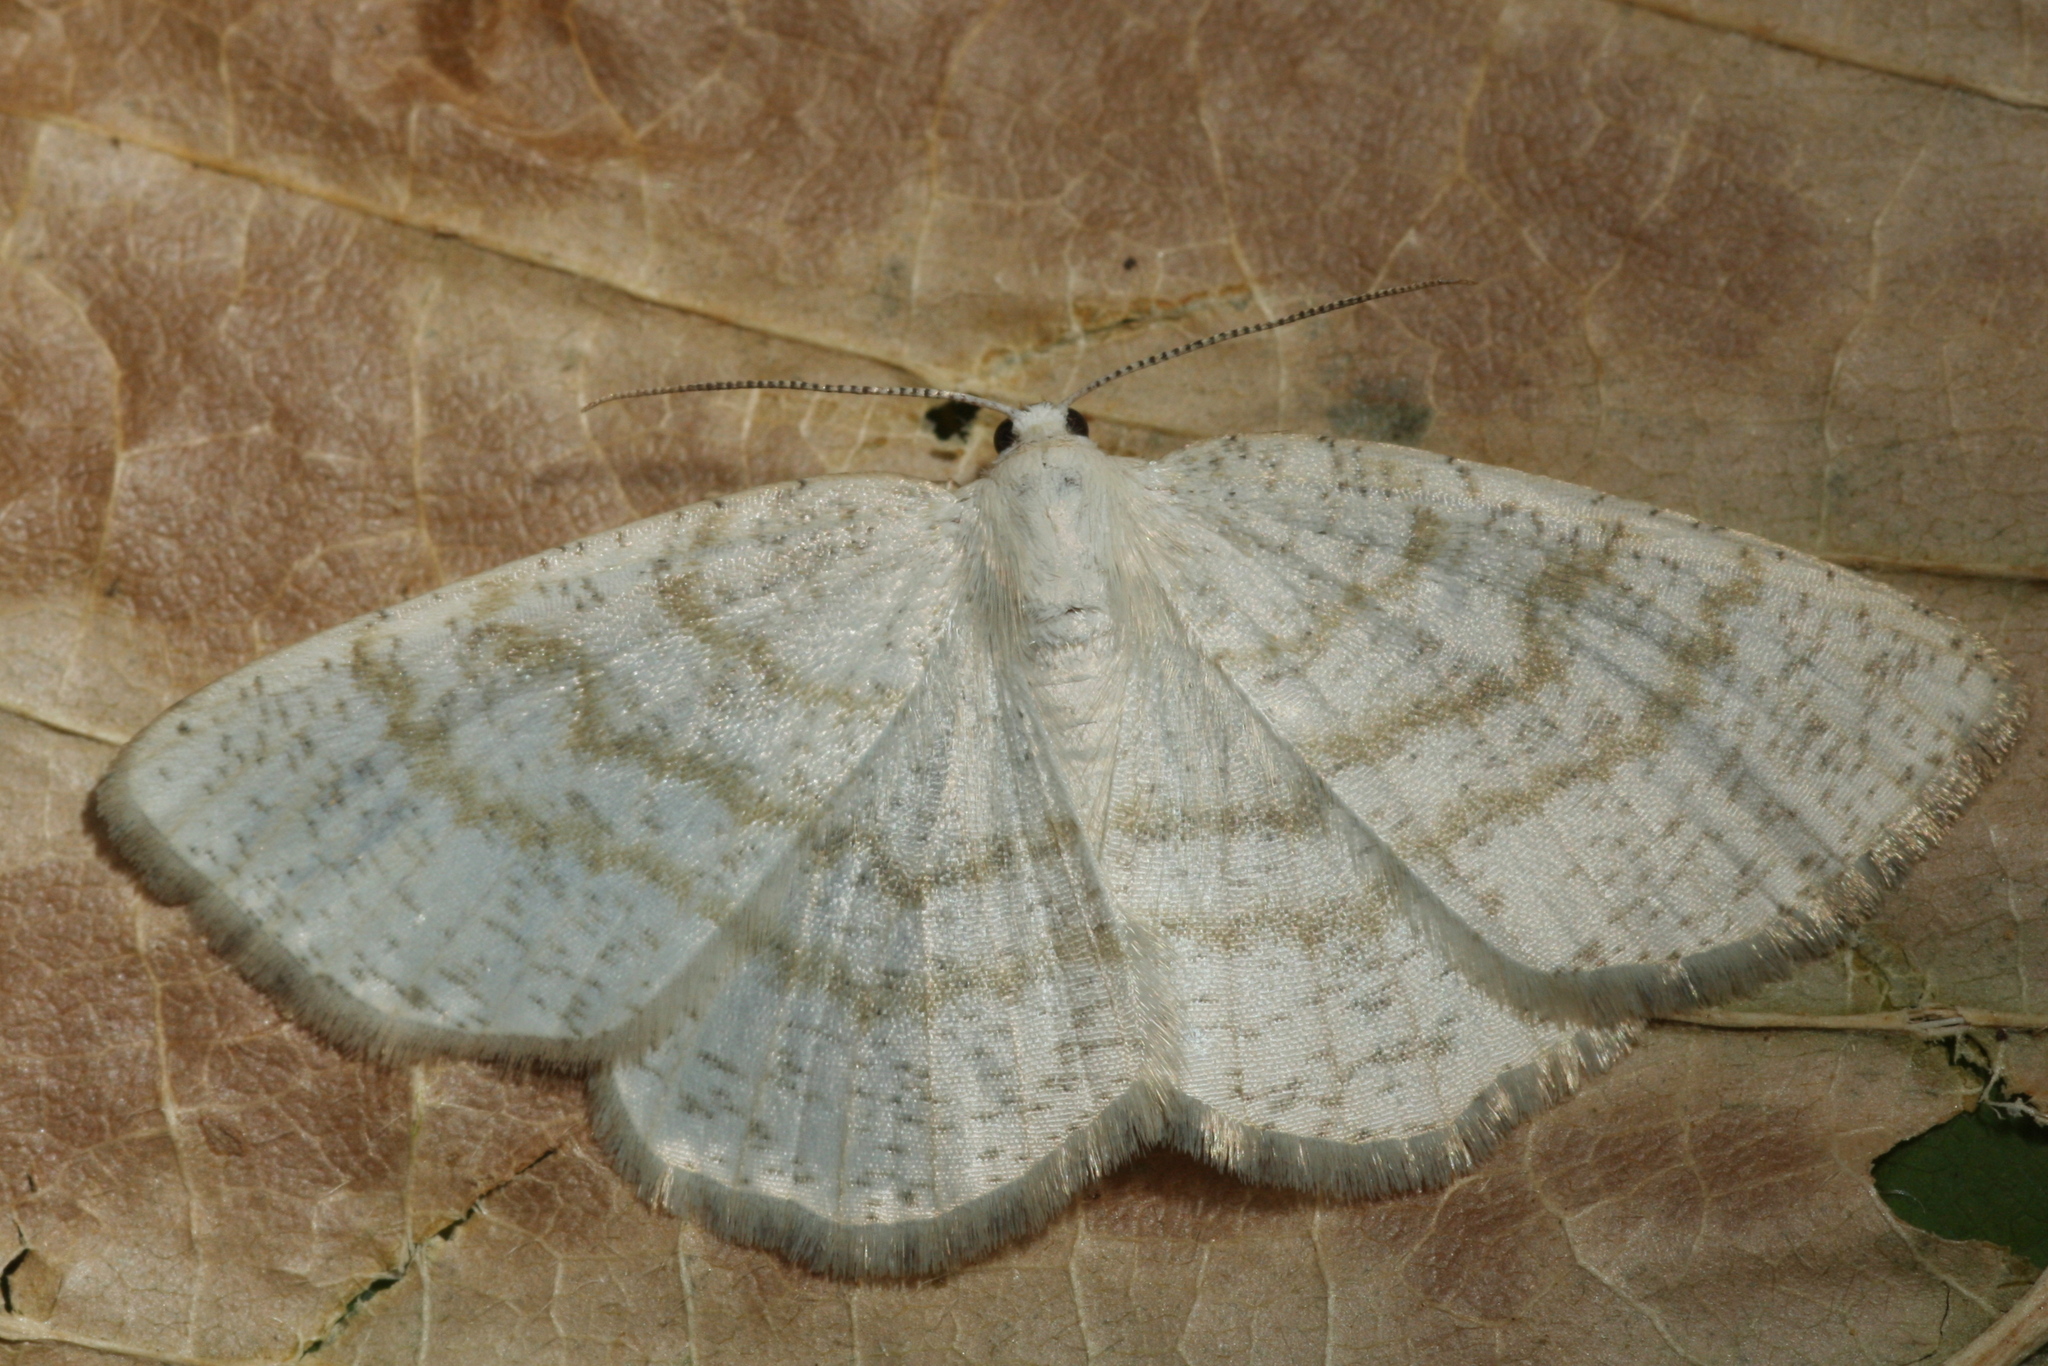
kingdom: Animalia
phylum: Arthropoda
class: Insecta
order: Lepidoptera
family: Geometridae
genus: Cabera
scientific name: Cabera exanthemata
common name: Common wave
